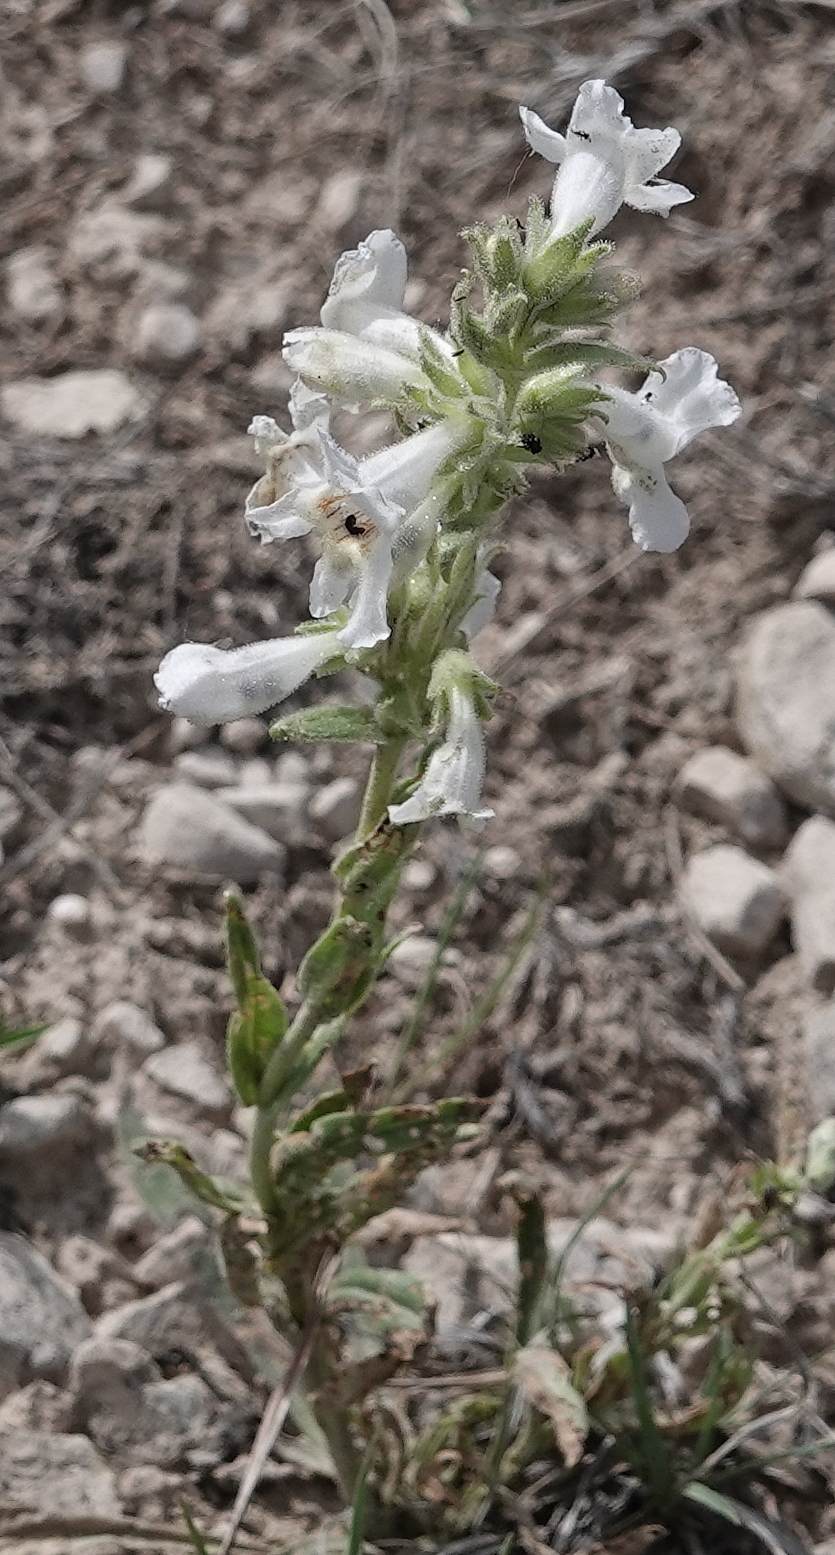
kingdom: Plantae
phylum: Tracheophyta
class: Magnoliopsida
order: Lamiales
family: Plantaginaceae
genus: Penstemon
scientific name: Penstemon albidus
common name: White beardtongue
